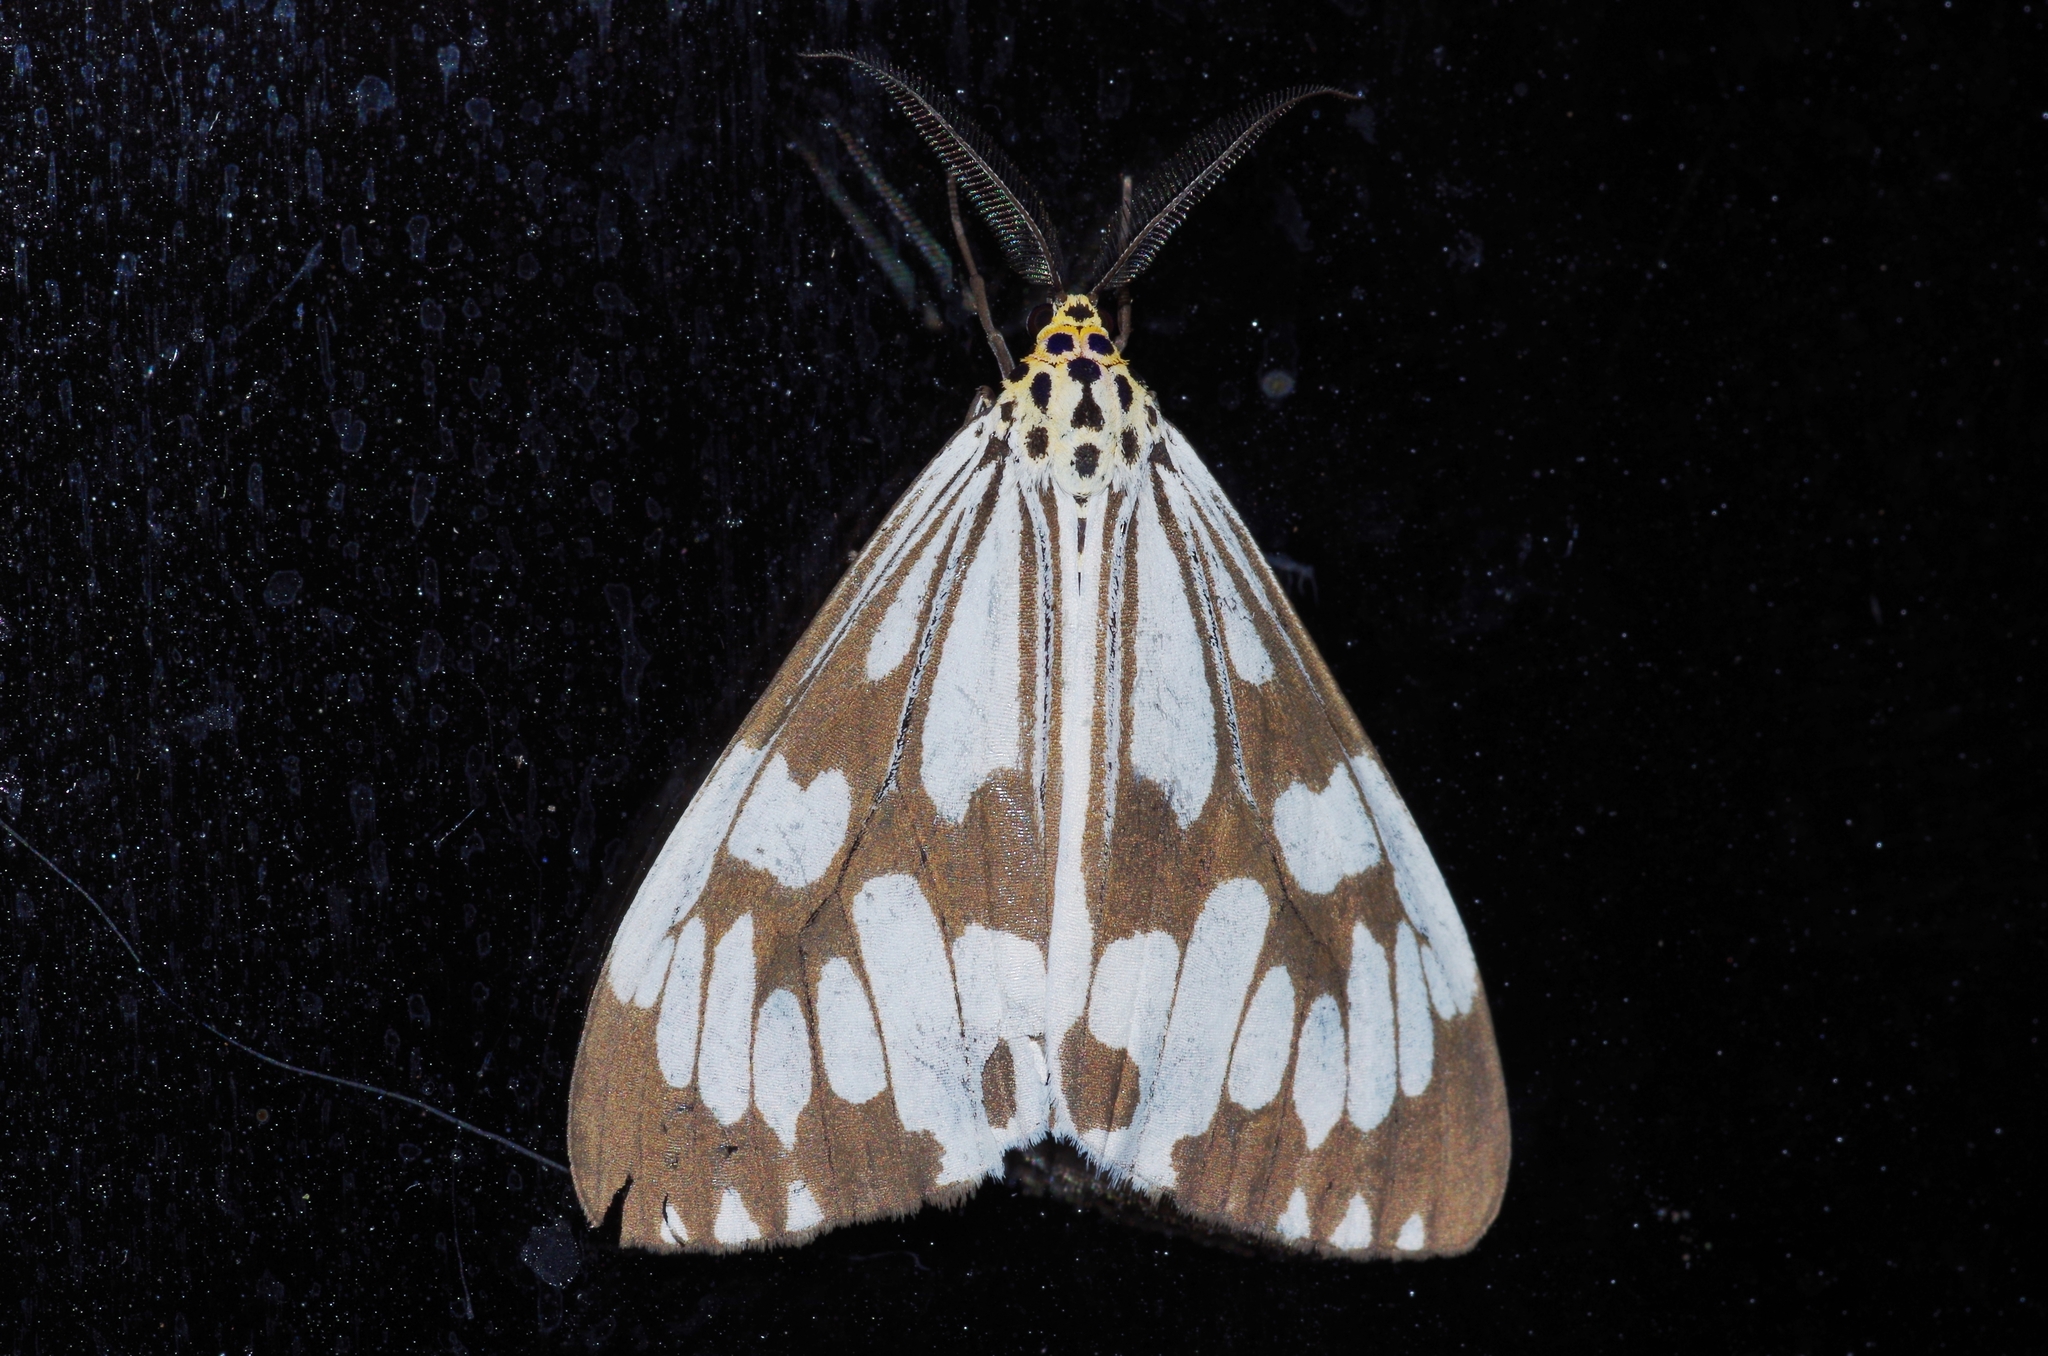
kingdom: Animalia
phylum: Arthropoda
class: Insecta
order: Lepidoptera
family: Erebidae
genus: Nyctemera
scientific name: Nyctemera adversata
